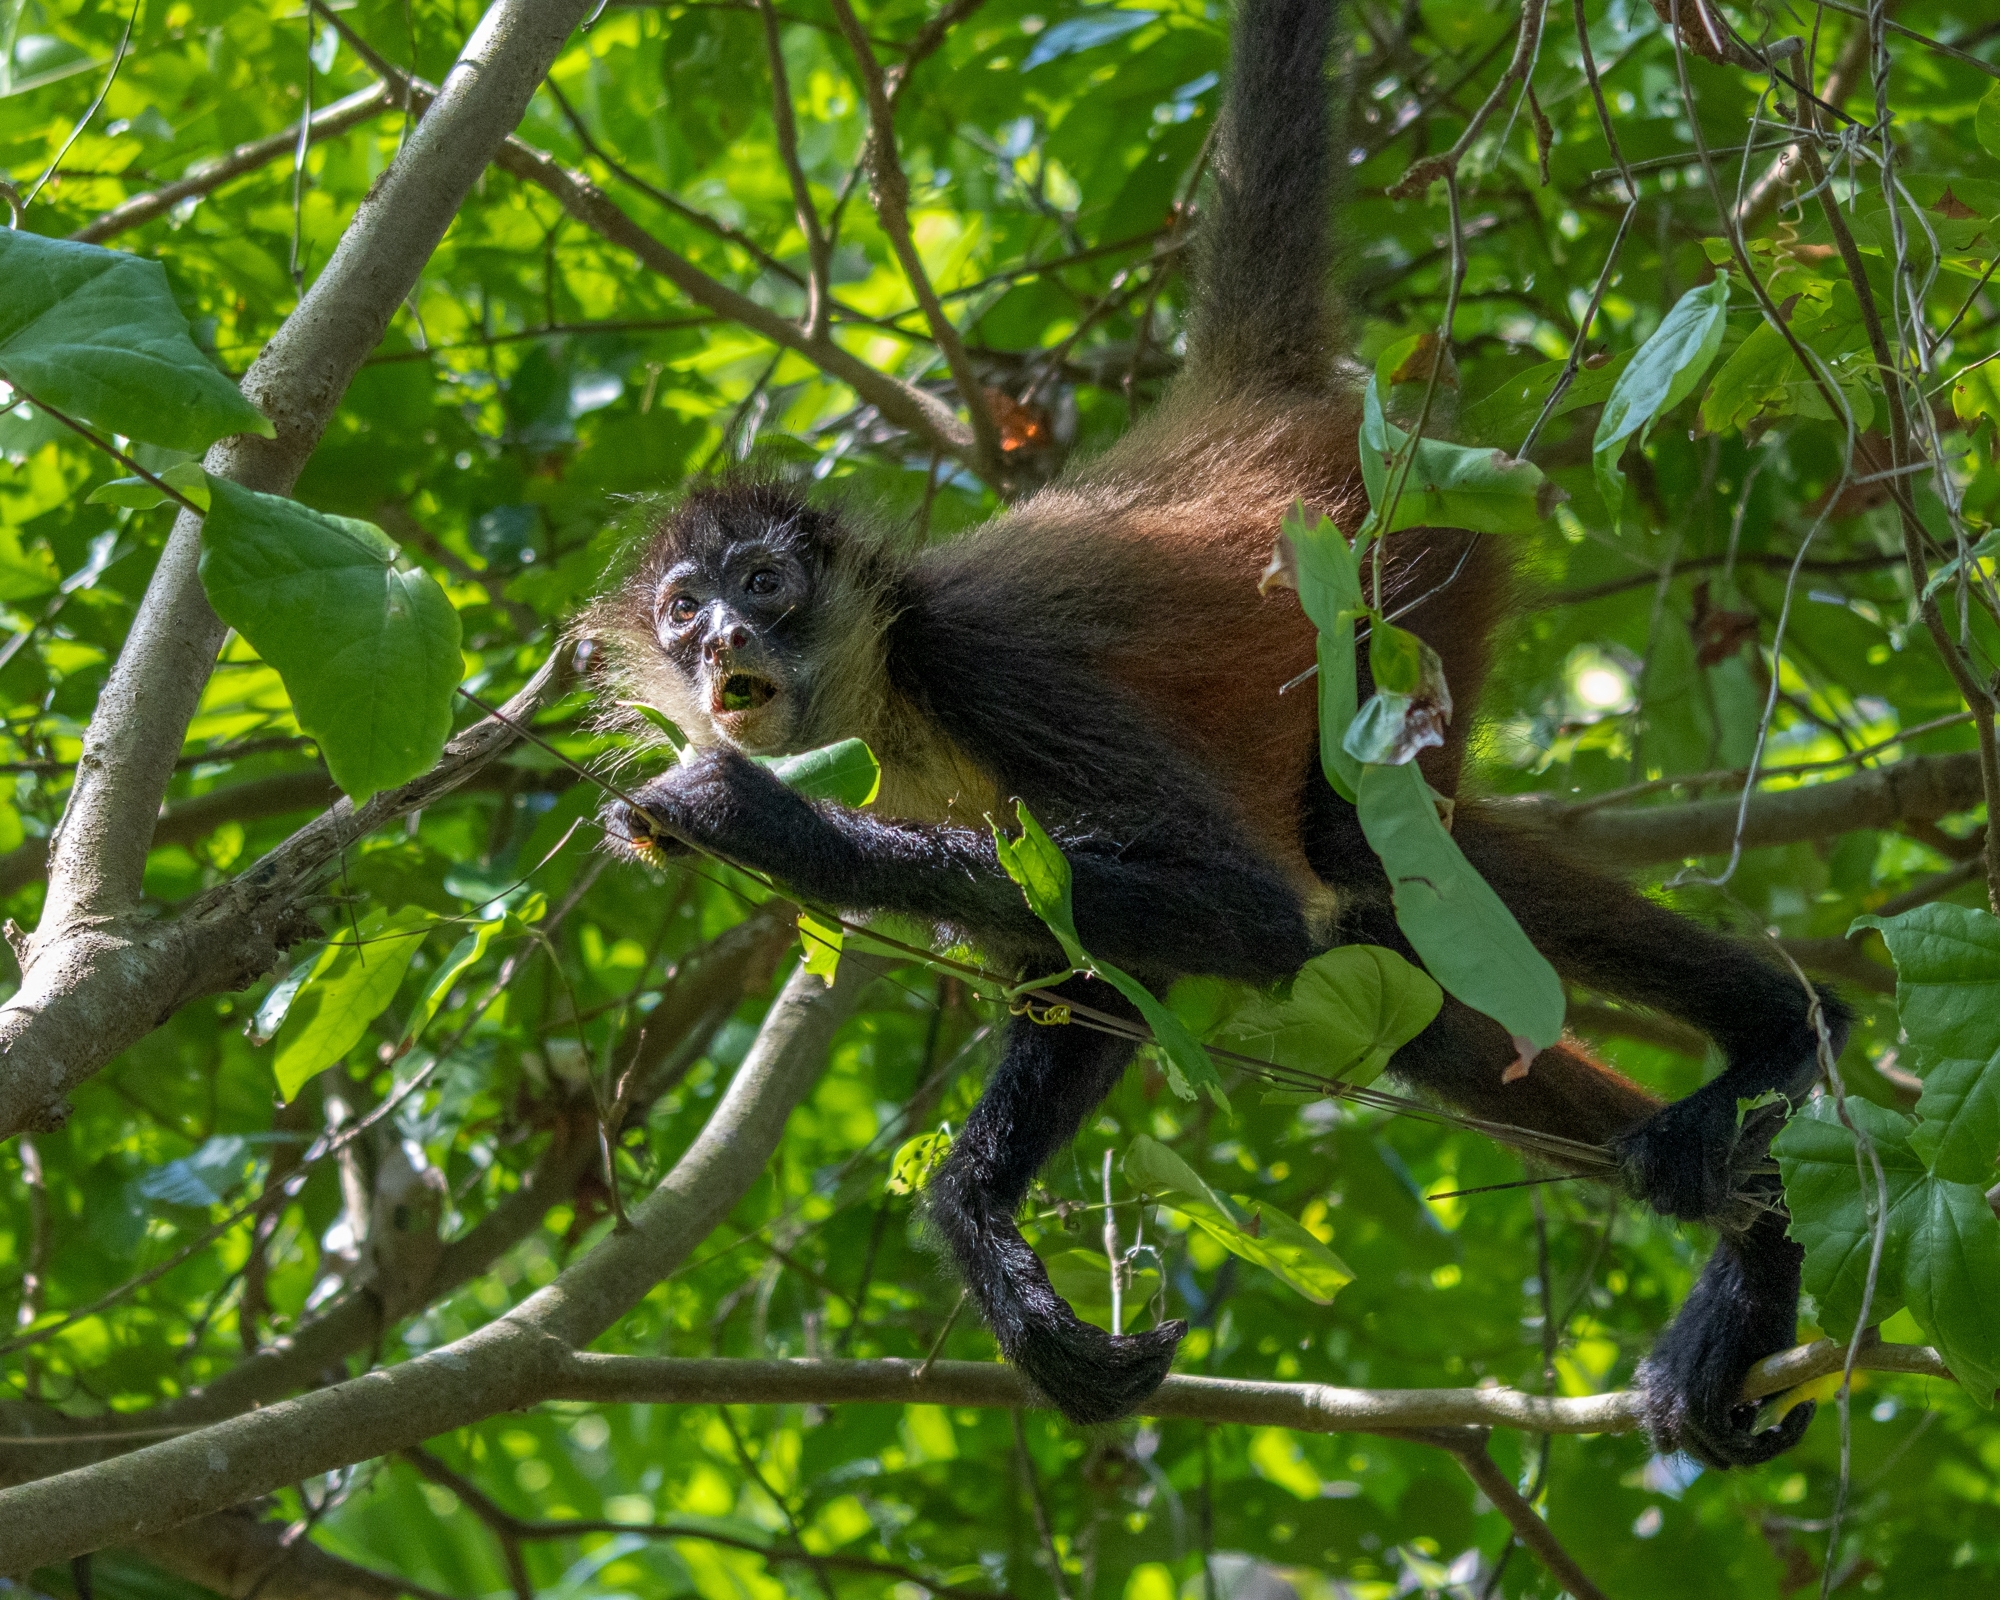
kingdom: Animalia
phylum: Chordata
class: Mammalia
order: Primates
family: Atelidae
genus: Ateles
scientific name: Ateles geoffroyi
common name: Black-handed spider monkey
